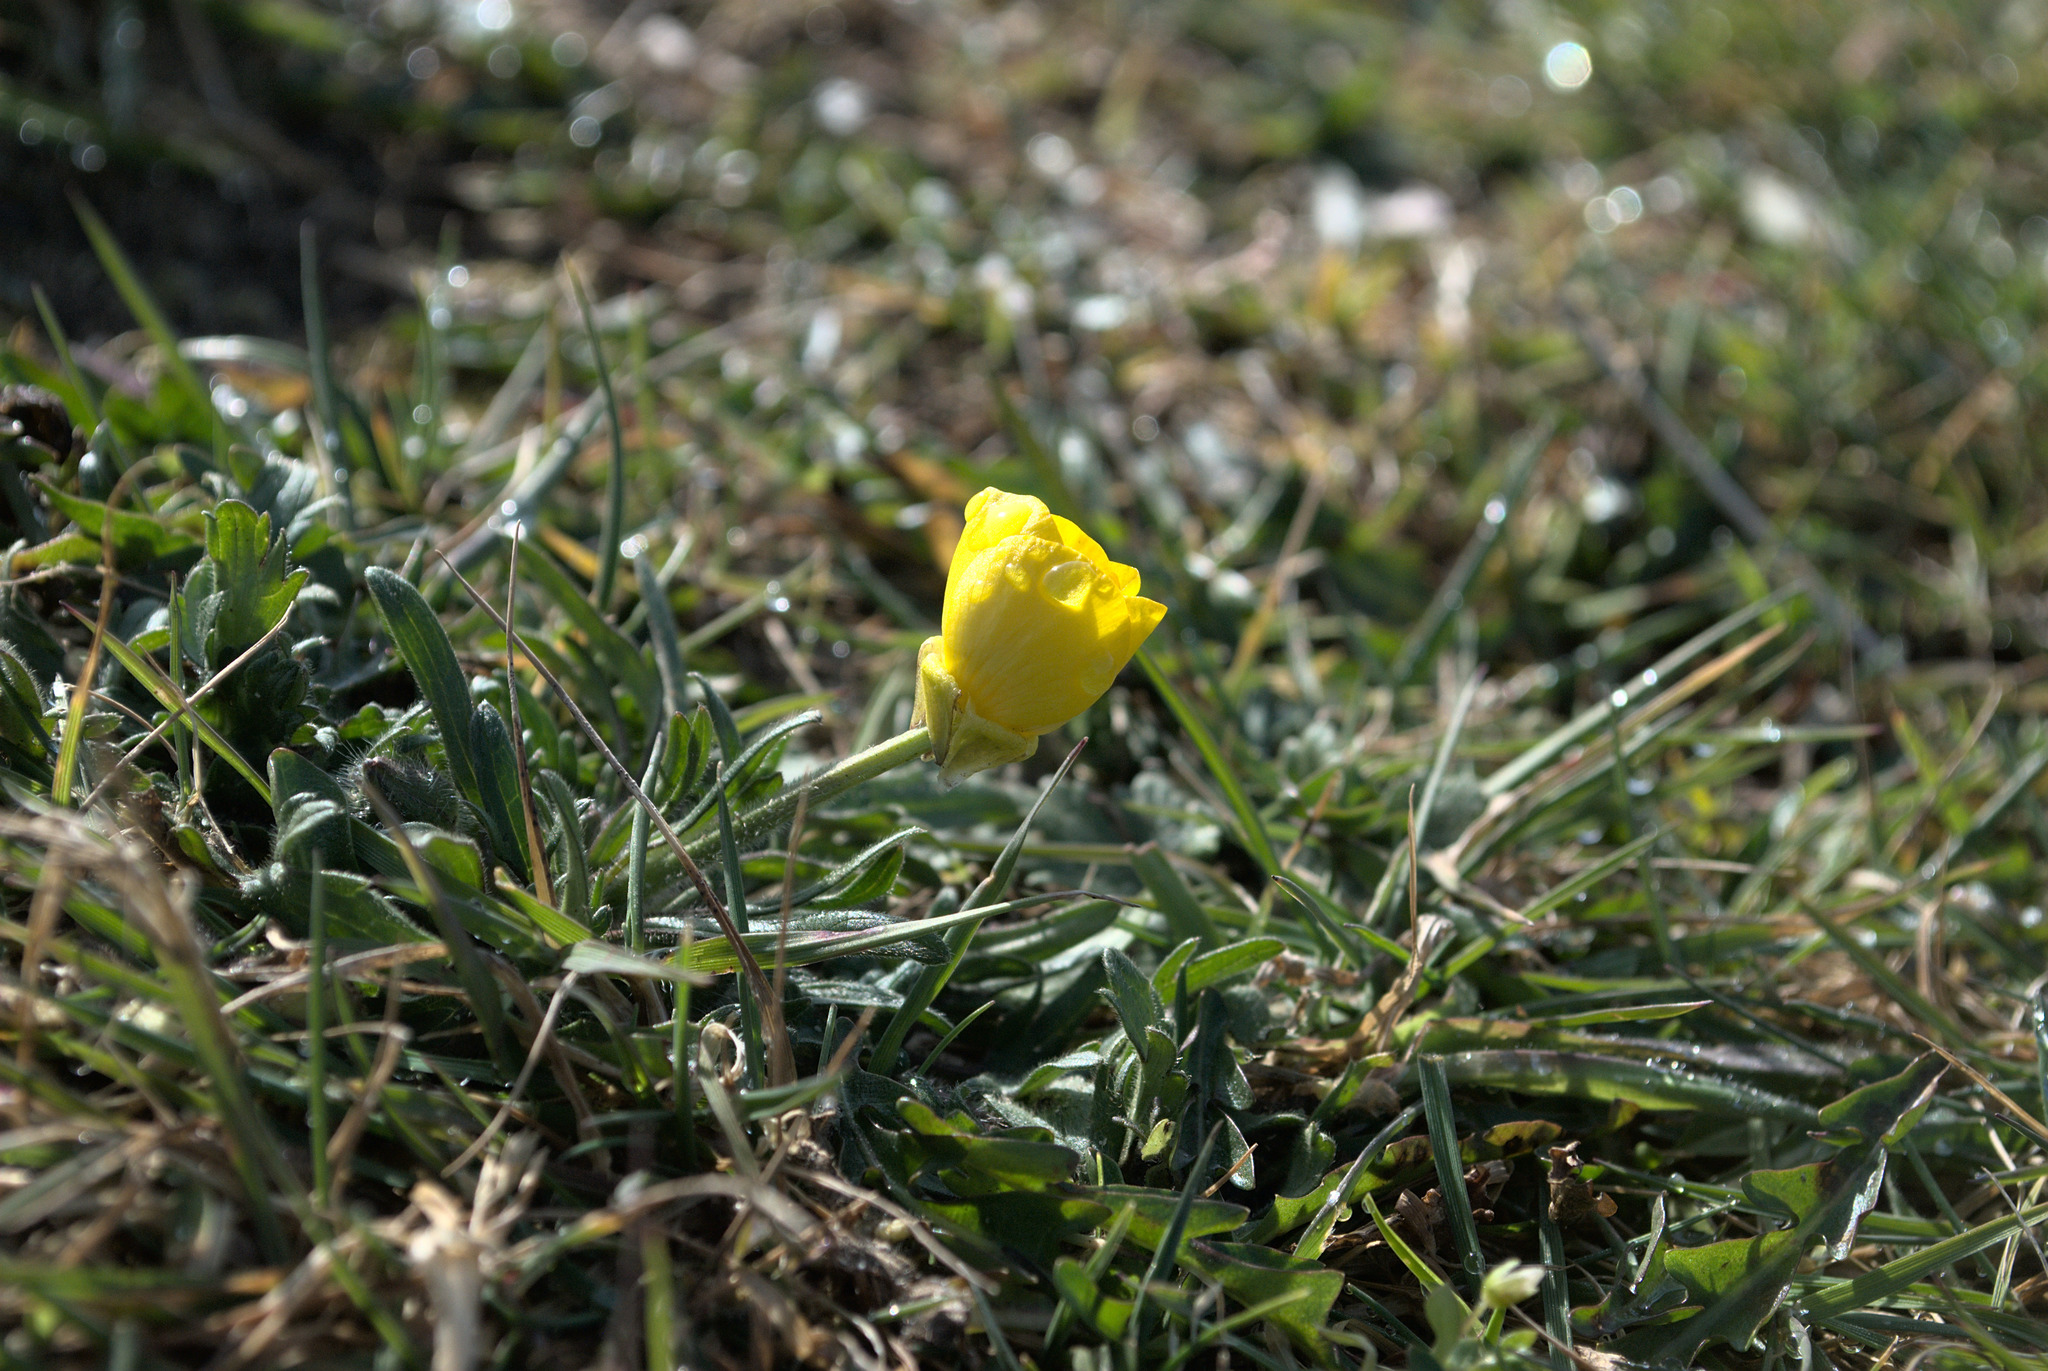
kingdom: Plantae
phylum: Tracheophyta
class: Magnoliopsida
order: Ranunculales
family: Ranunculaceae
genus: Ranunculus
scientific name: Ranunculus bulbosus
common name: Bulbous buttercup
